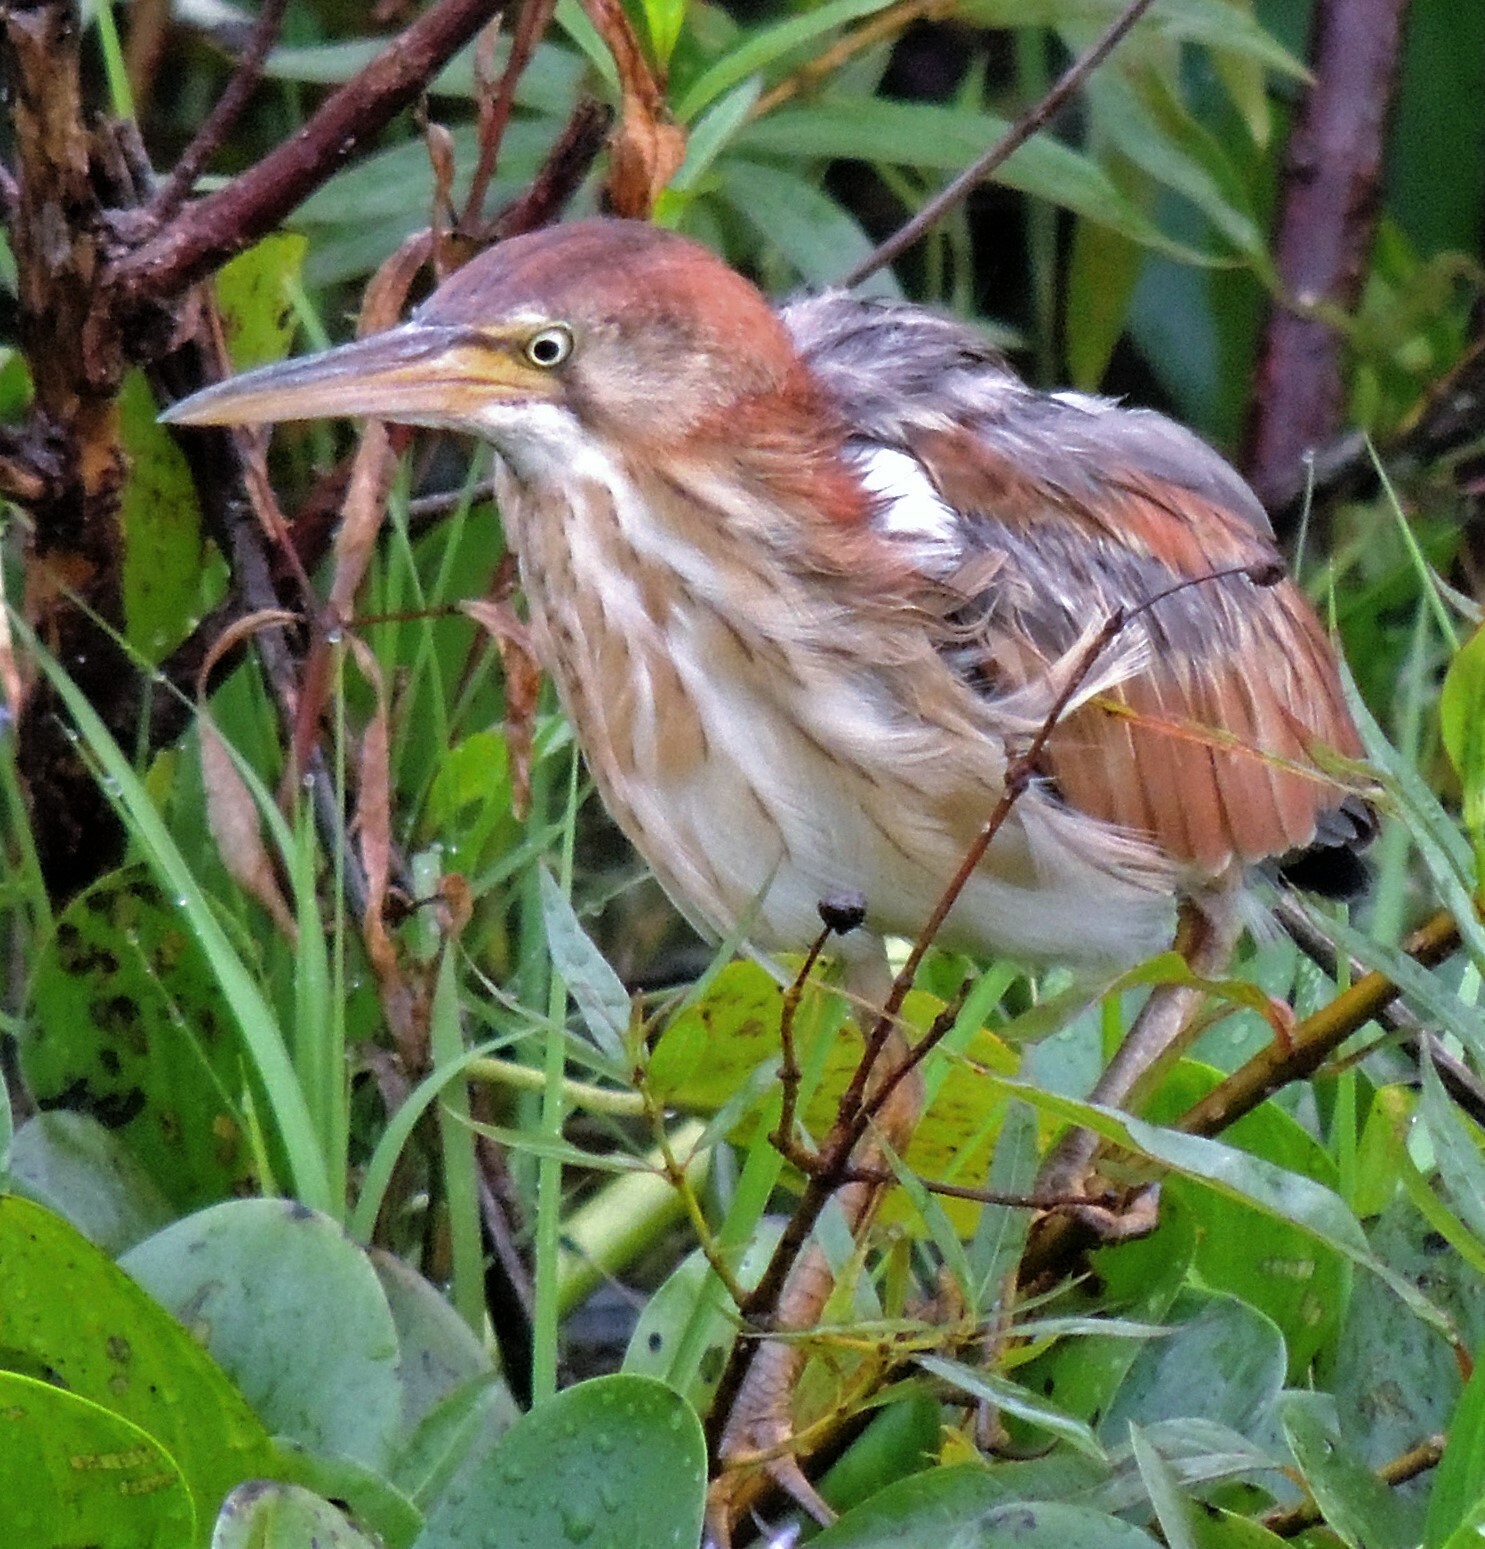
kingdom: Animalia
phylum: Chordata
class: Aves
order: Pelecaniformes
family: Ardeidae
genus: Ixobrychus
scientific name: Ixobrychus involucris
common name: Stripe-backed bittern
